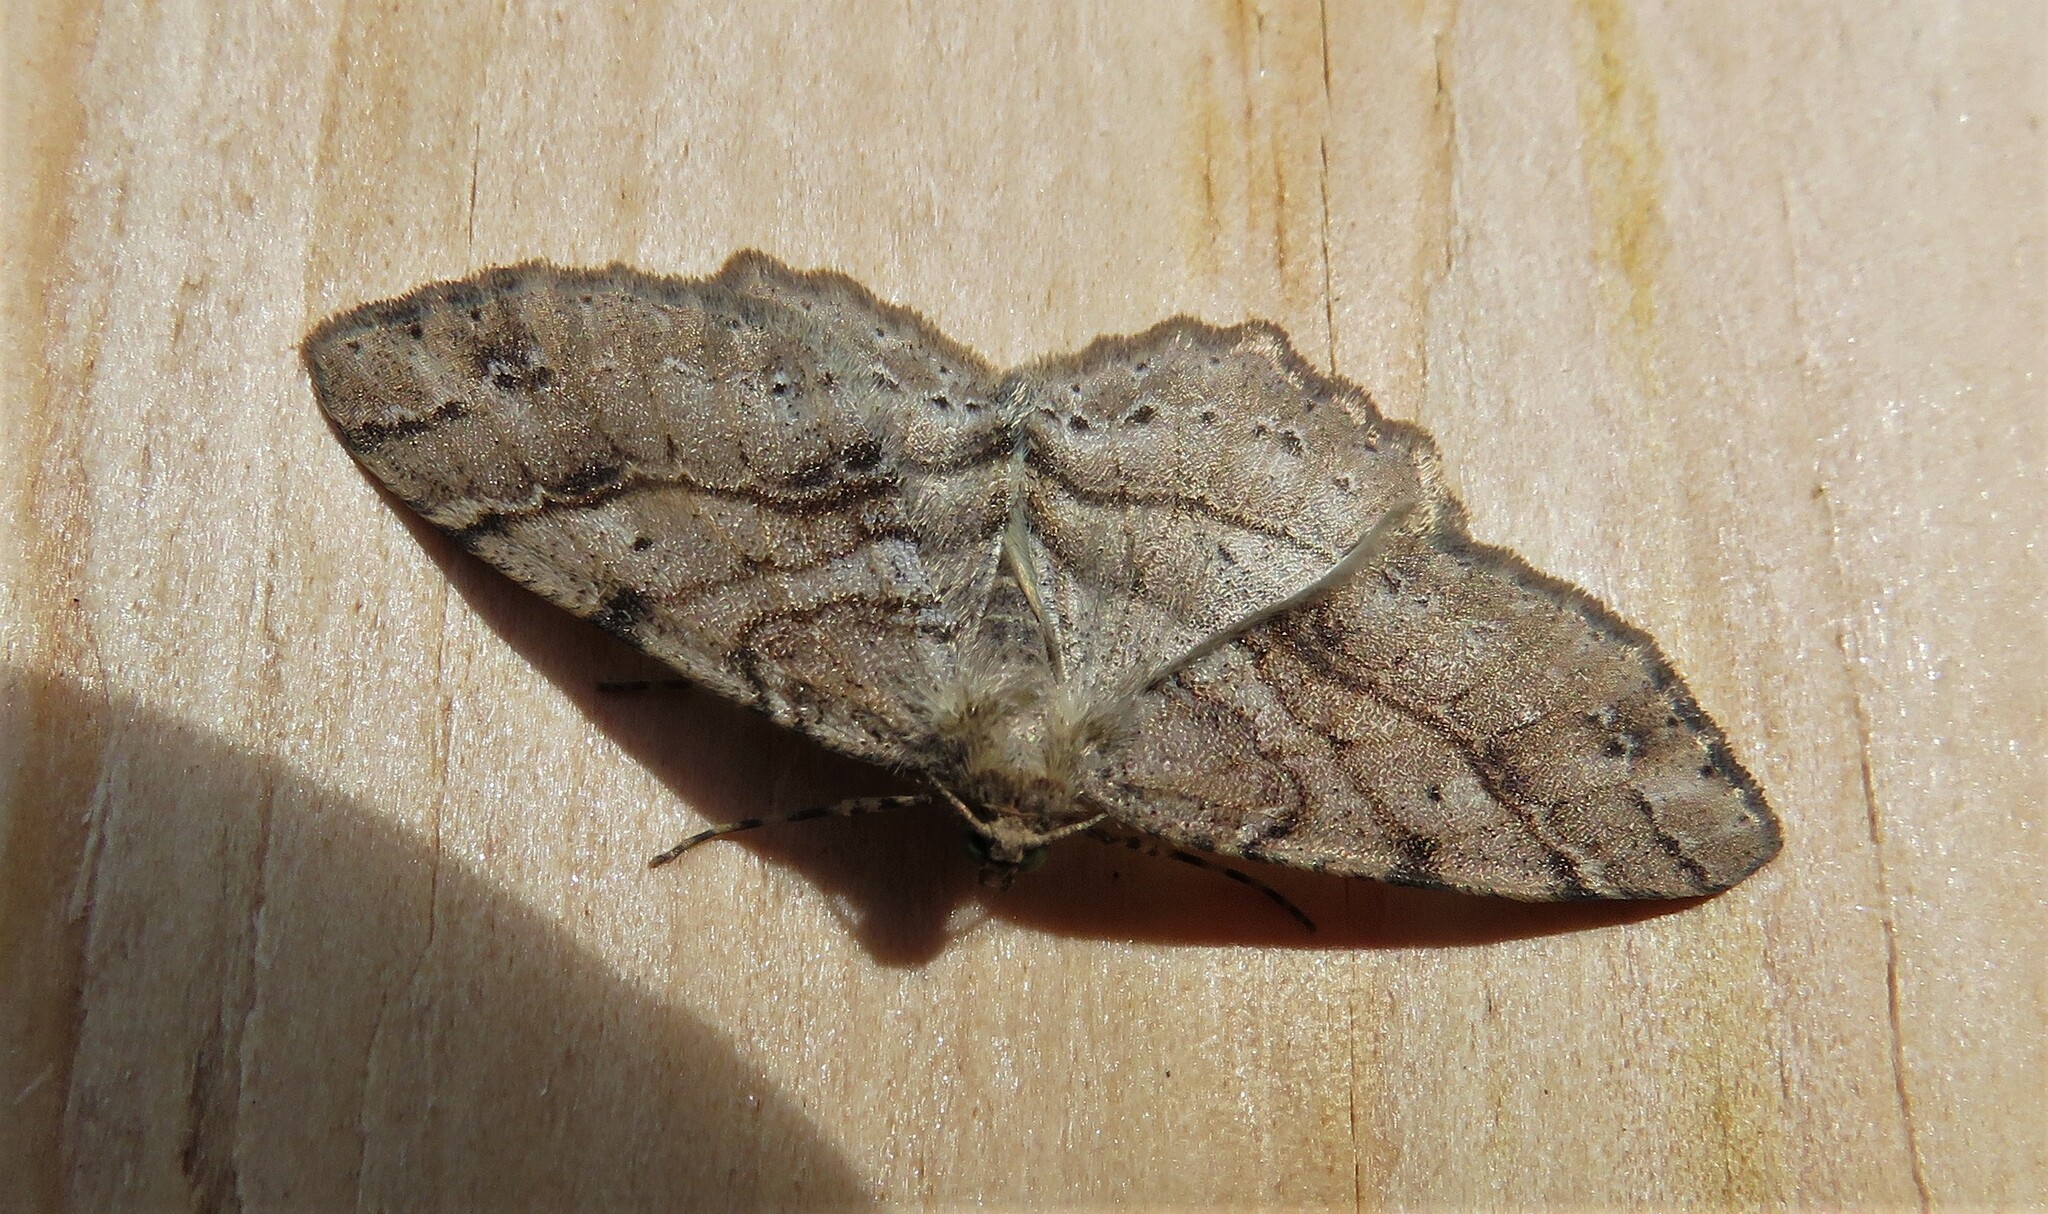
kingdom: Animalia
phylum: Arthropoda
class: Insecta
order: Lepidoptera
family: Geometridae
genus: Melanolophia
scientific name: Melanolophia signataria
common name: Signate melanolophia
